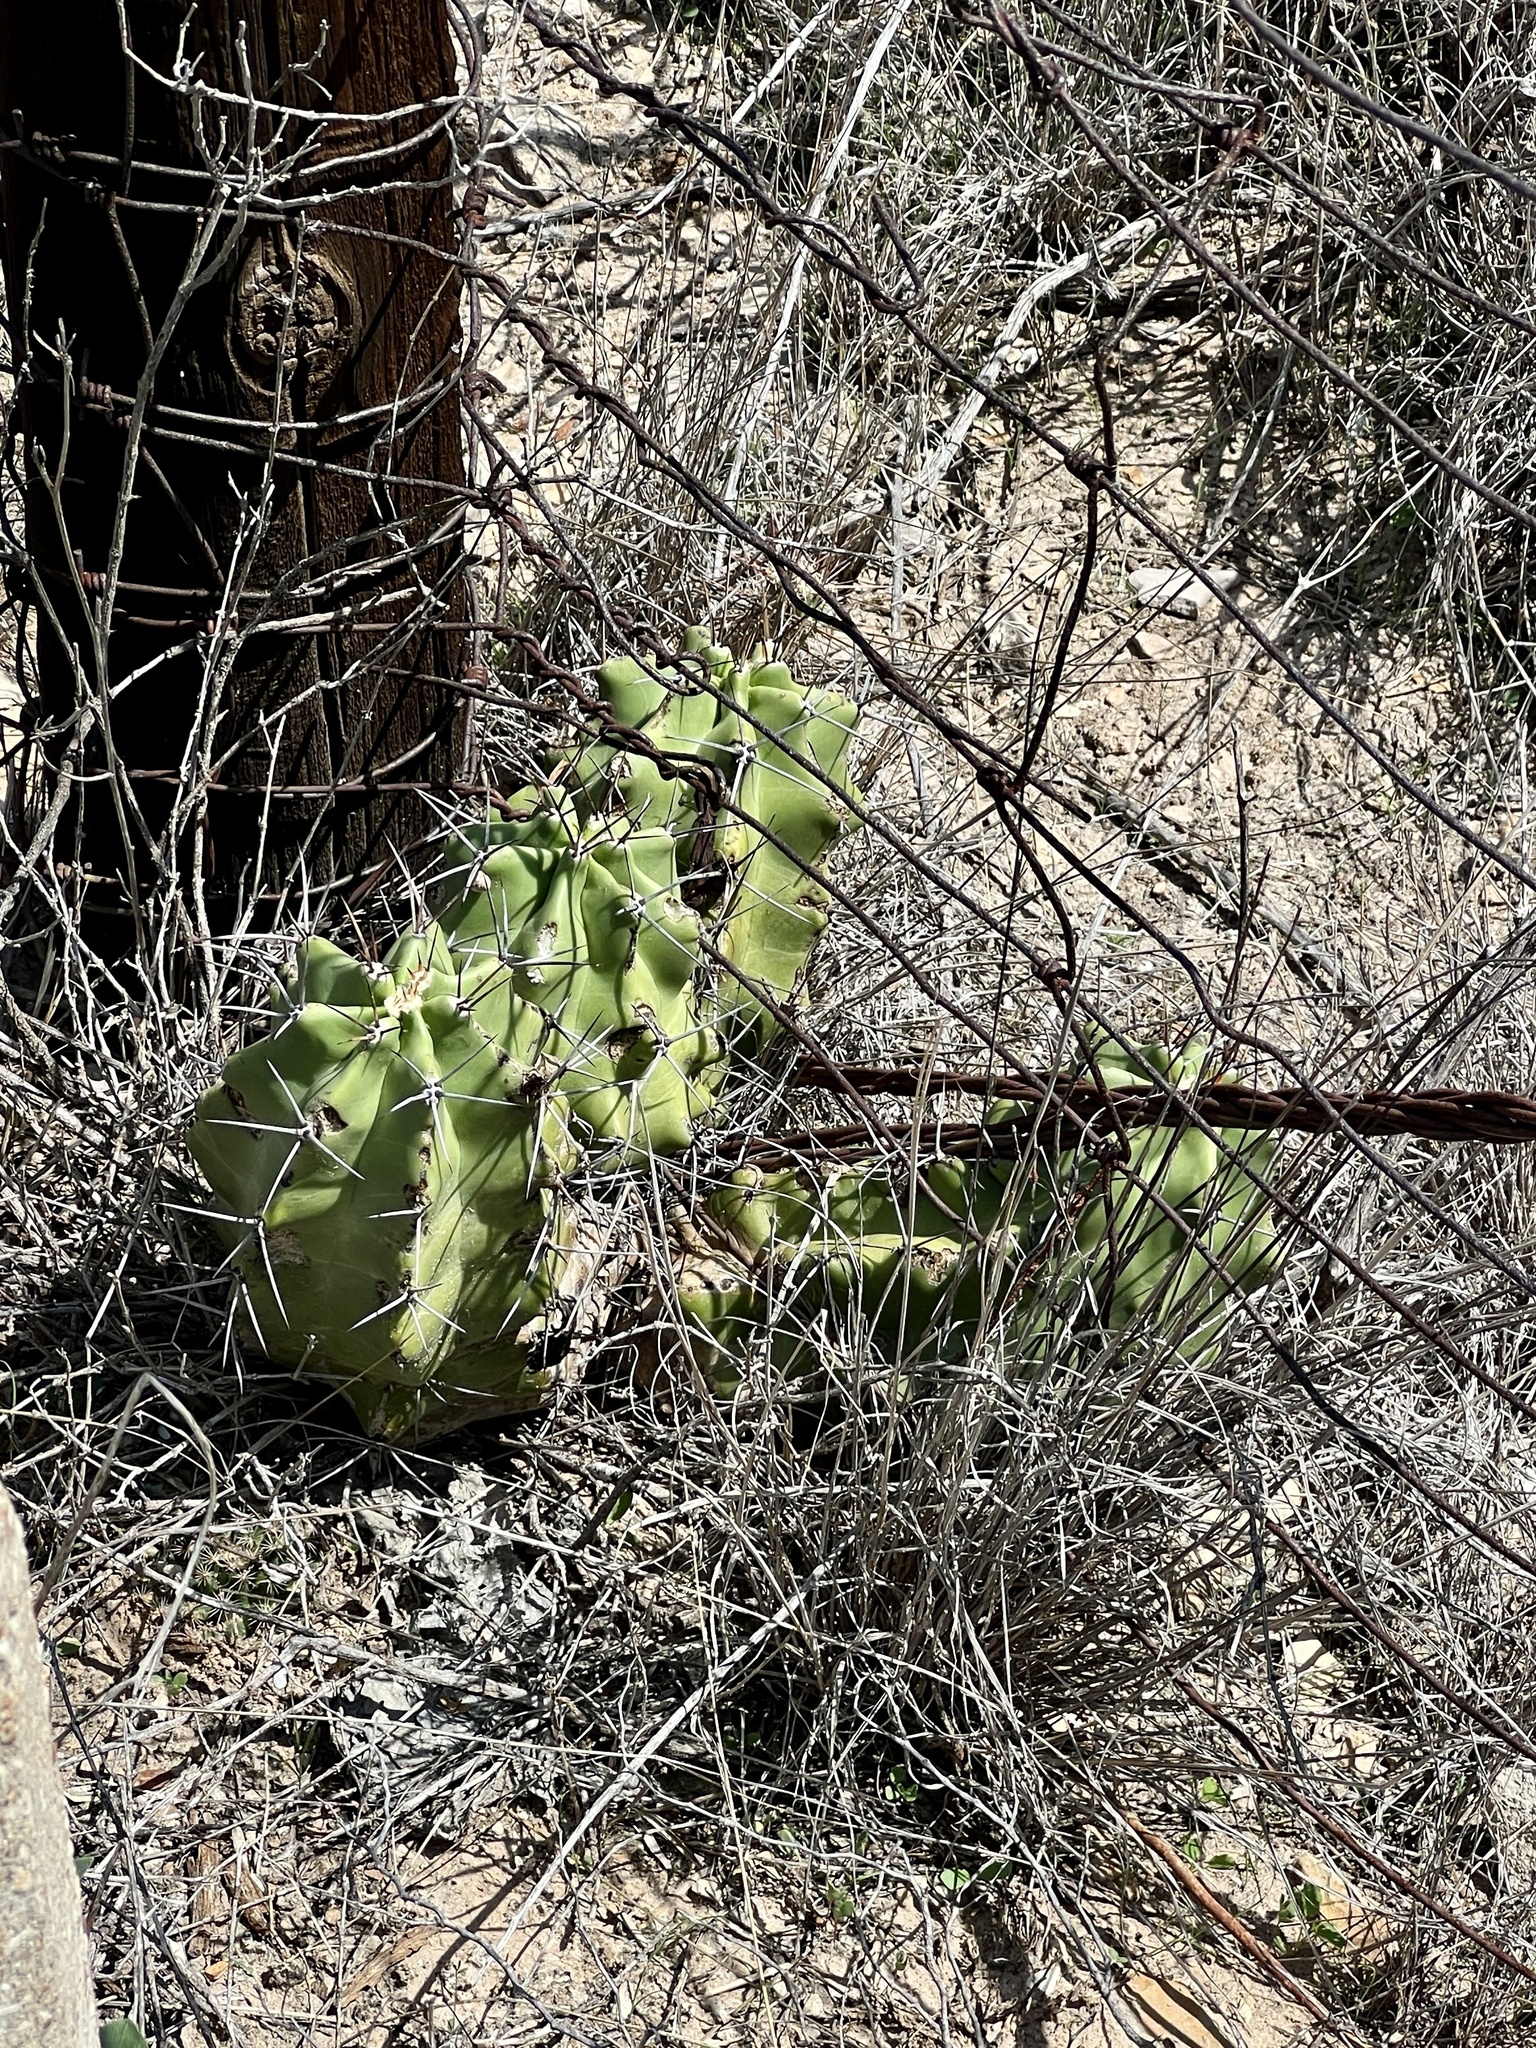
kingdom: Plantae
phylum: Tracheophyta
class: Magnoliopsida
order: Caryophyllales
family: Cactaceae
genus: Echinocereus
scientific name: Echinocereus coccineus
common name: Scarlet hedgehog cactus
